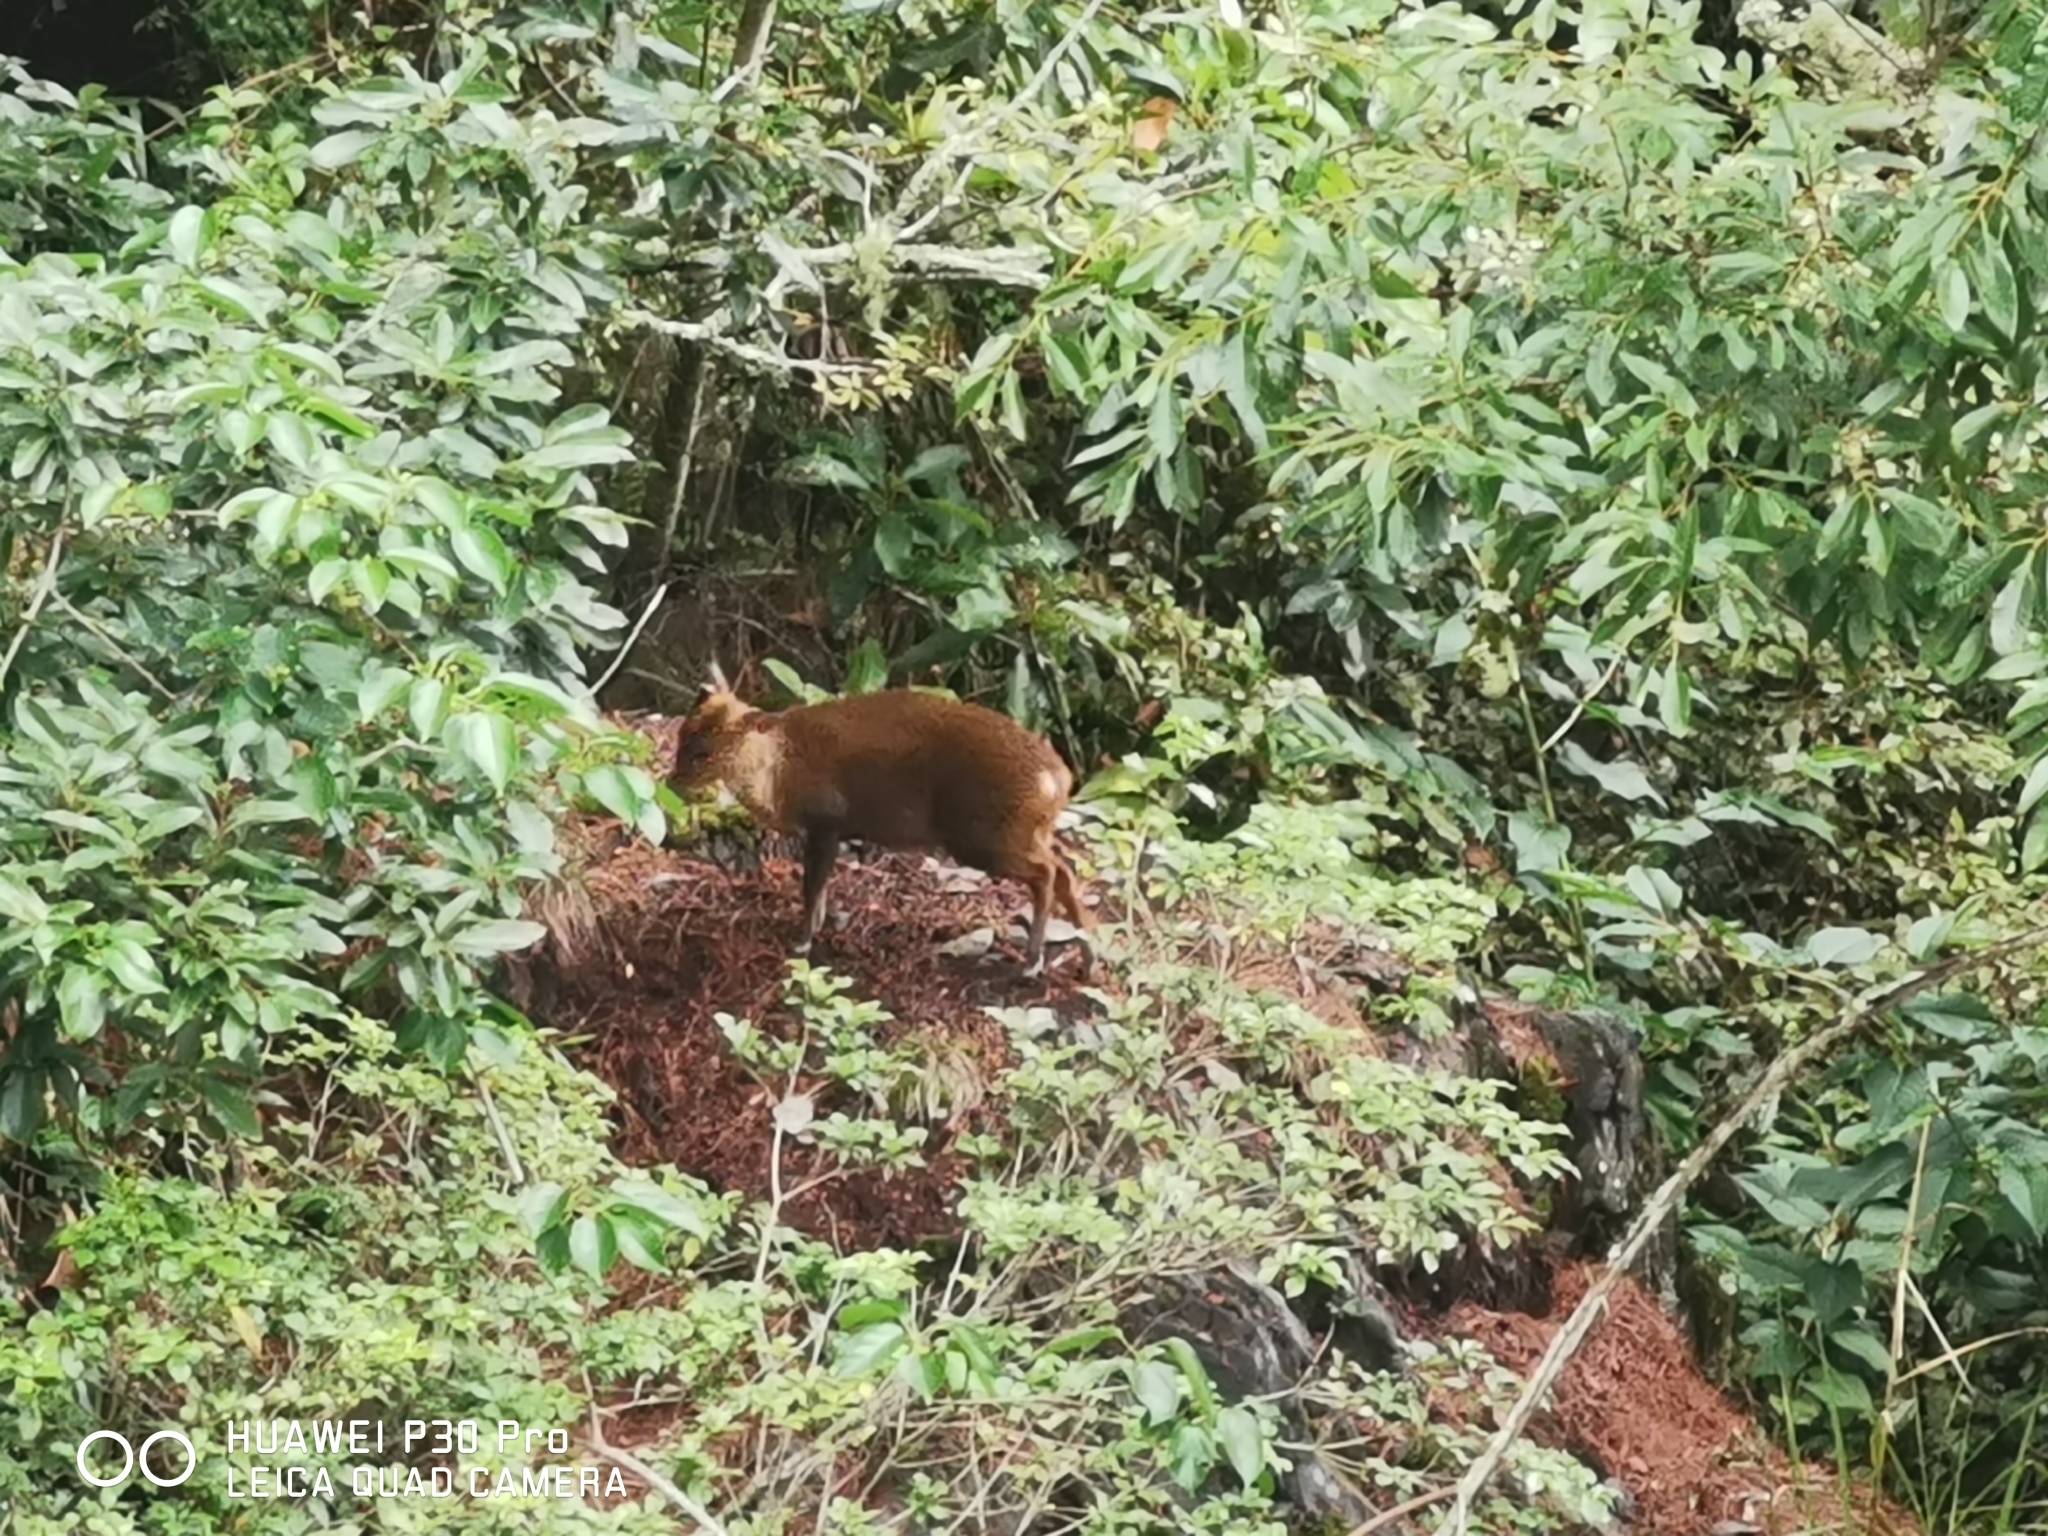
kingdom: Animalia
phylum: Chordata
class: Mammalia
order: Artiodactyla
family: Cervidae
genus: Muntiacus
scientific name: Muntiacus reevesi
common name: Reeves' muntjac
